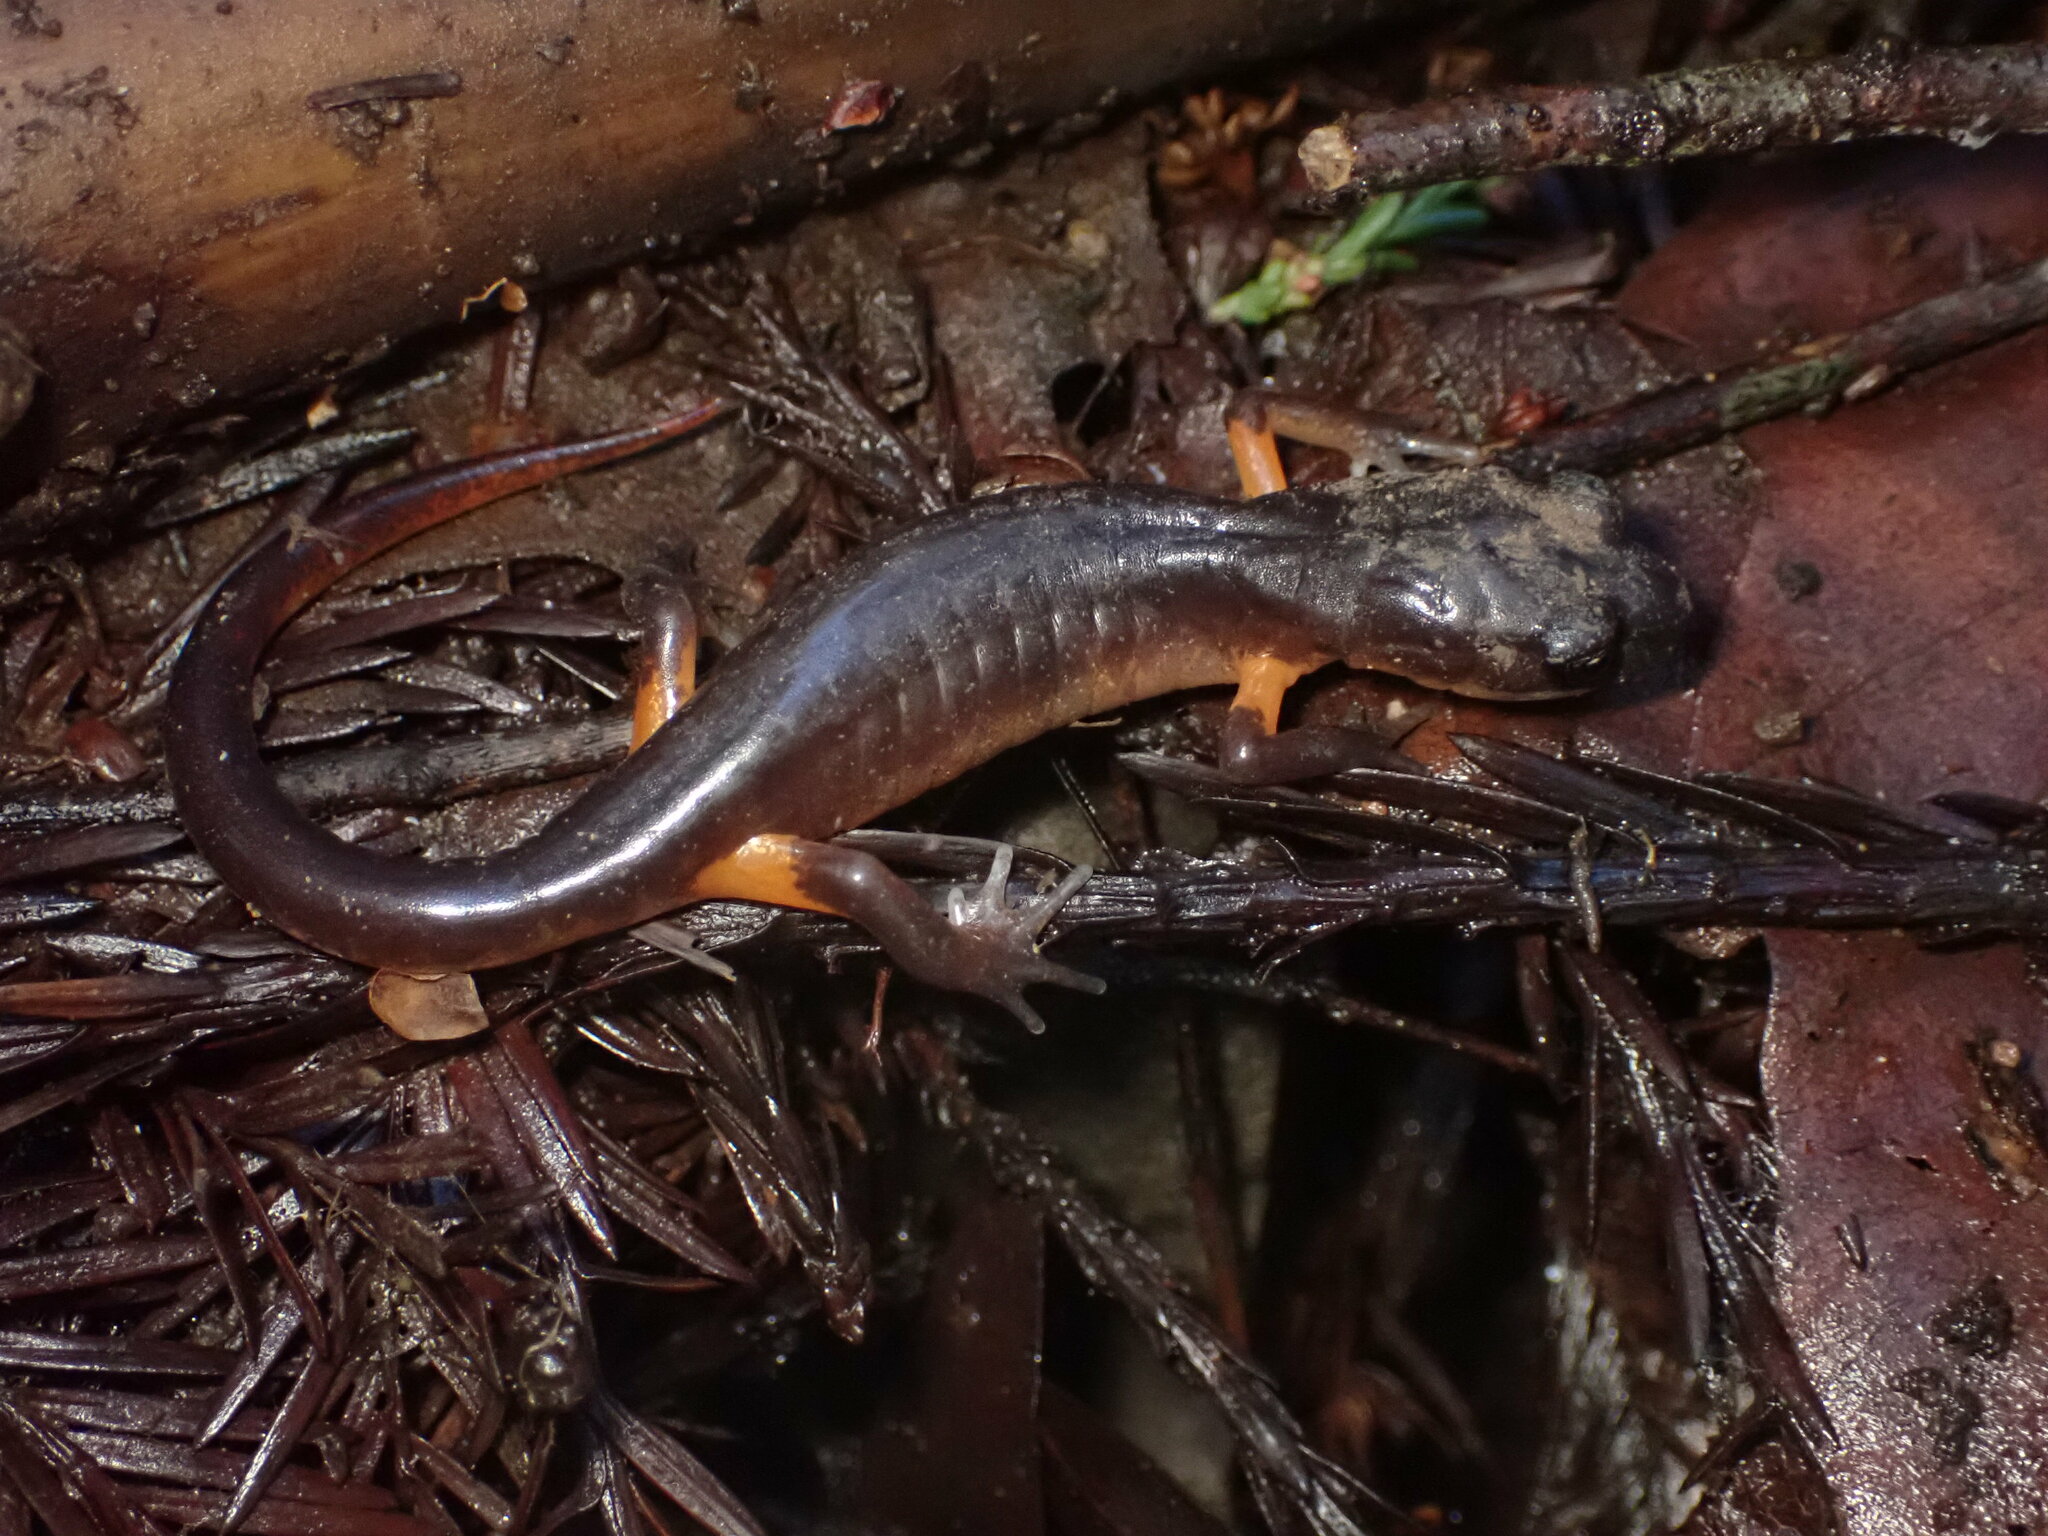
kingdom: Animalia
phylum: Chordata
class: Amphibia
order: Caudata
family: Plethodontidae
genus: Ensatina
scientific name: Ensatina eschscholtzii
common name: Ensatina
